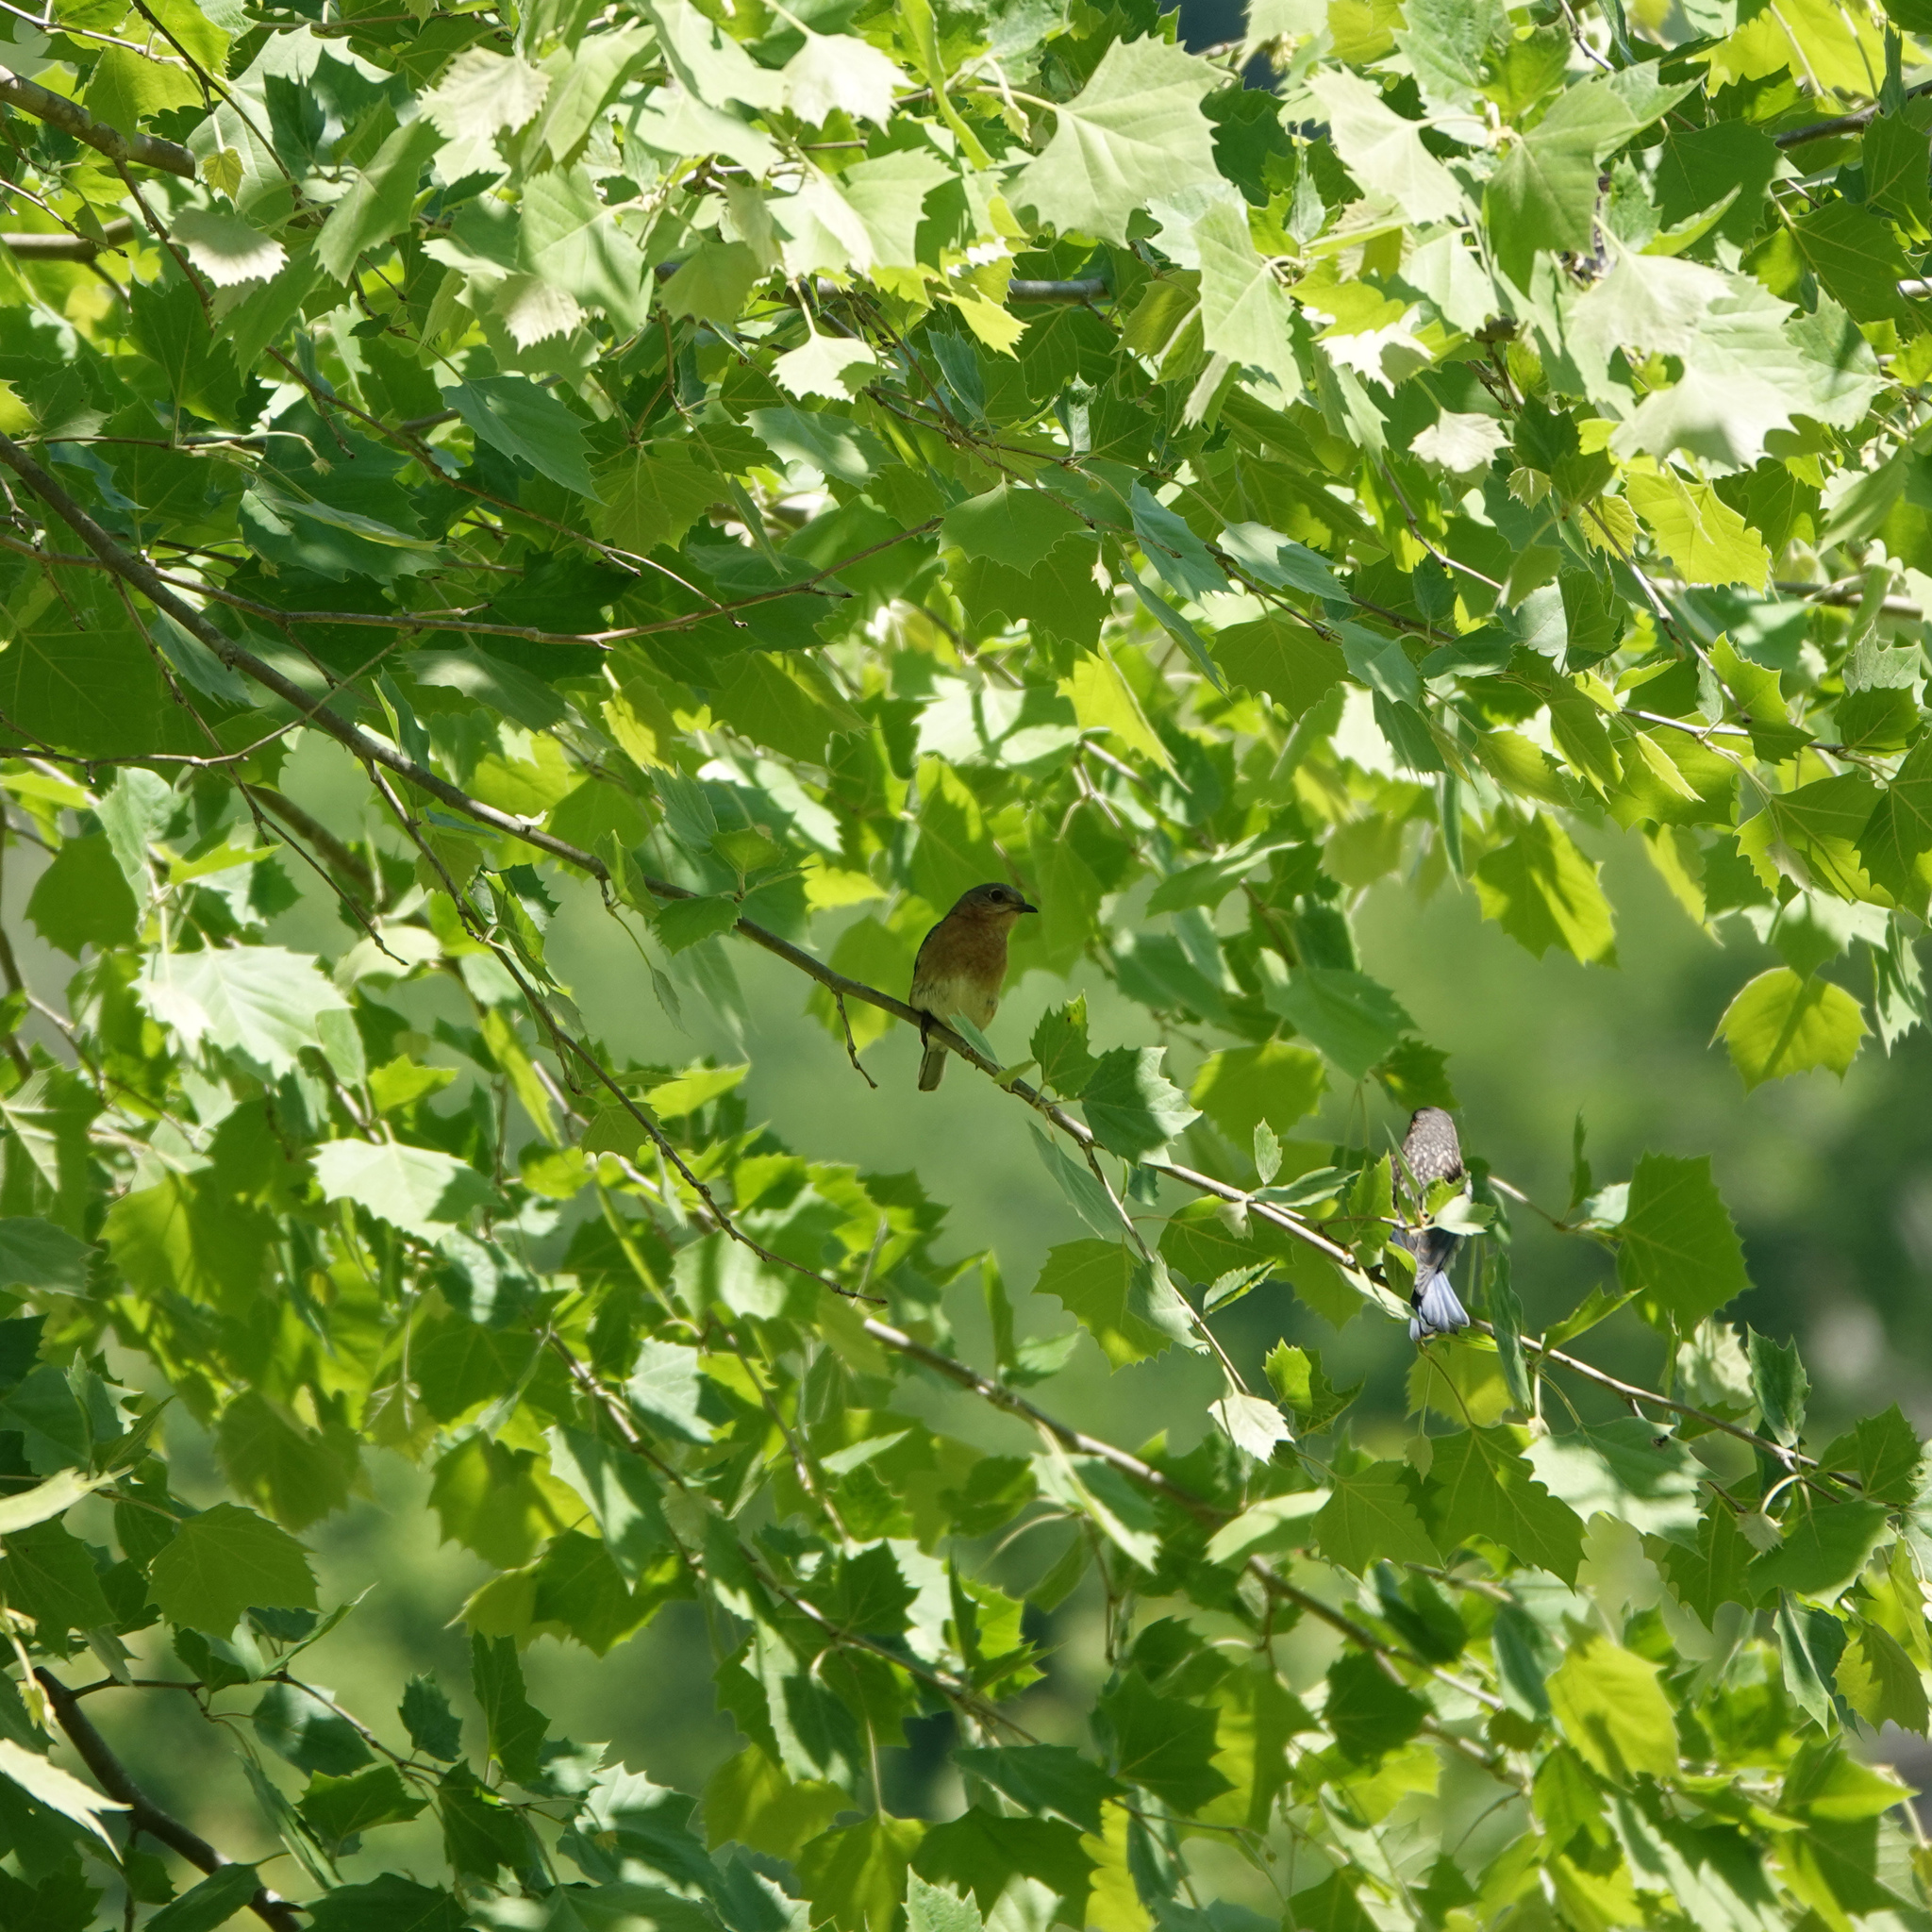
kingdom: Animalia
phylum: Chordata
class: Aves
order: Passeriformes
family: Turdidae
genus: Sialia
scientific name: Sialia sialis
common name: Eastern bluebird
